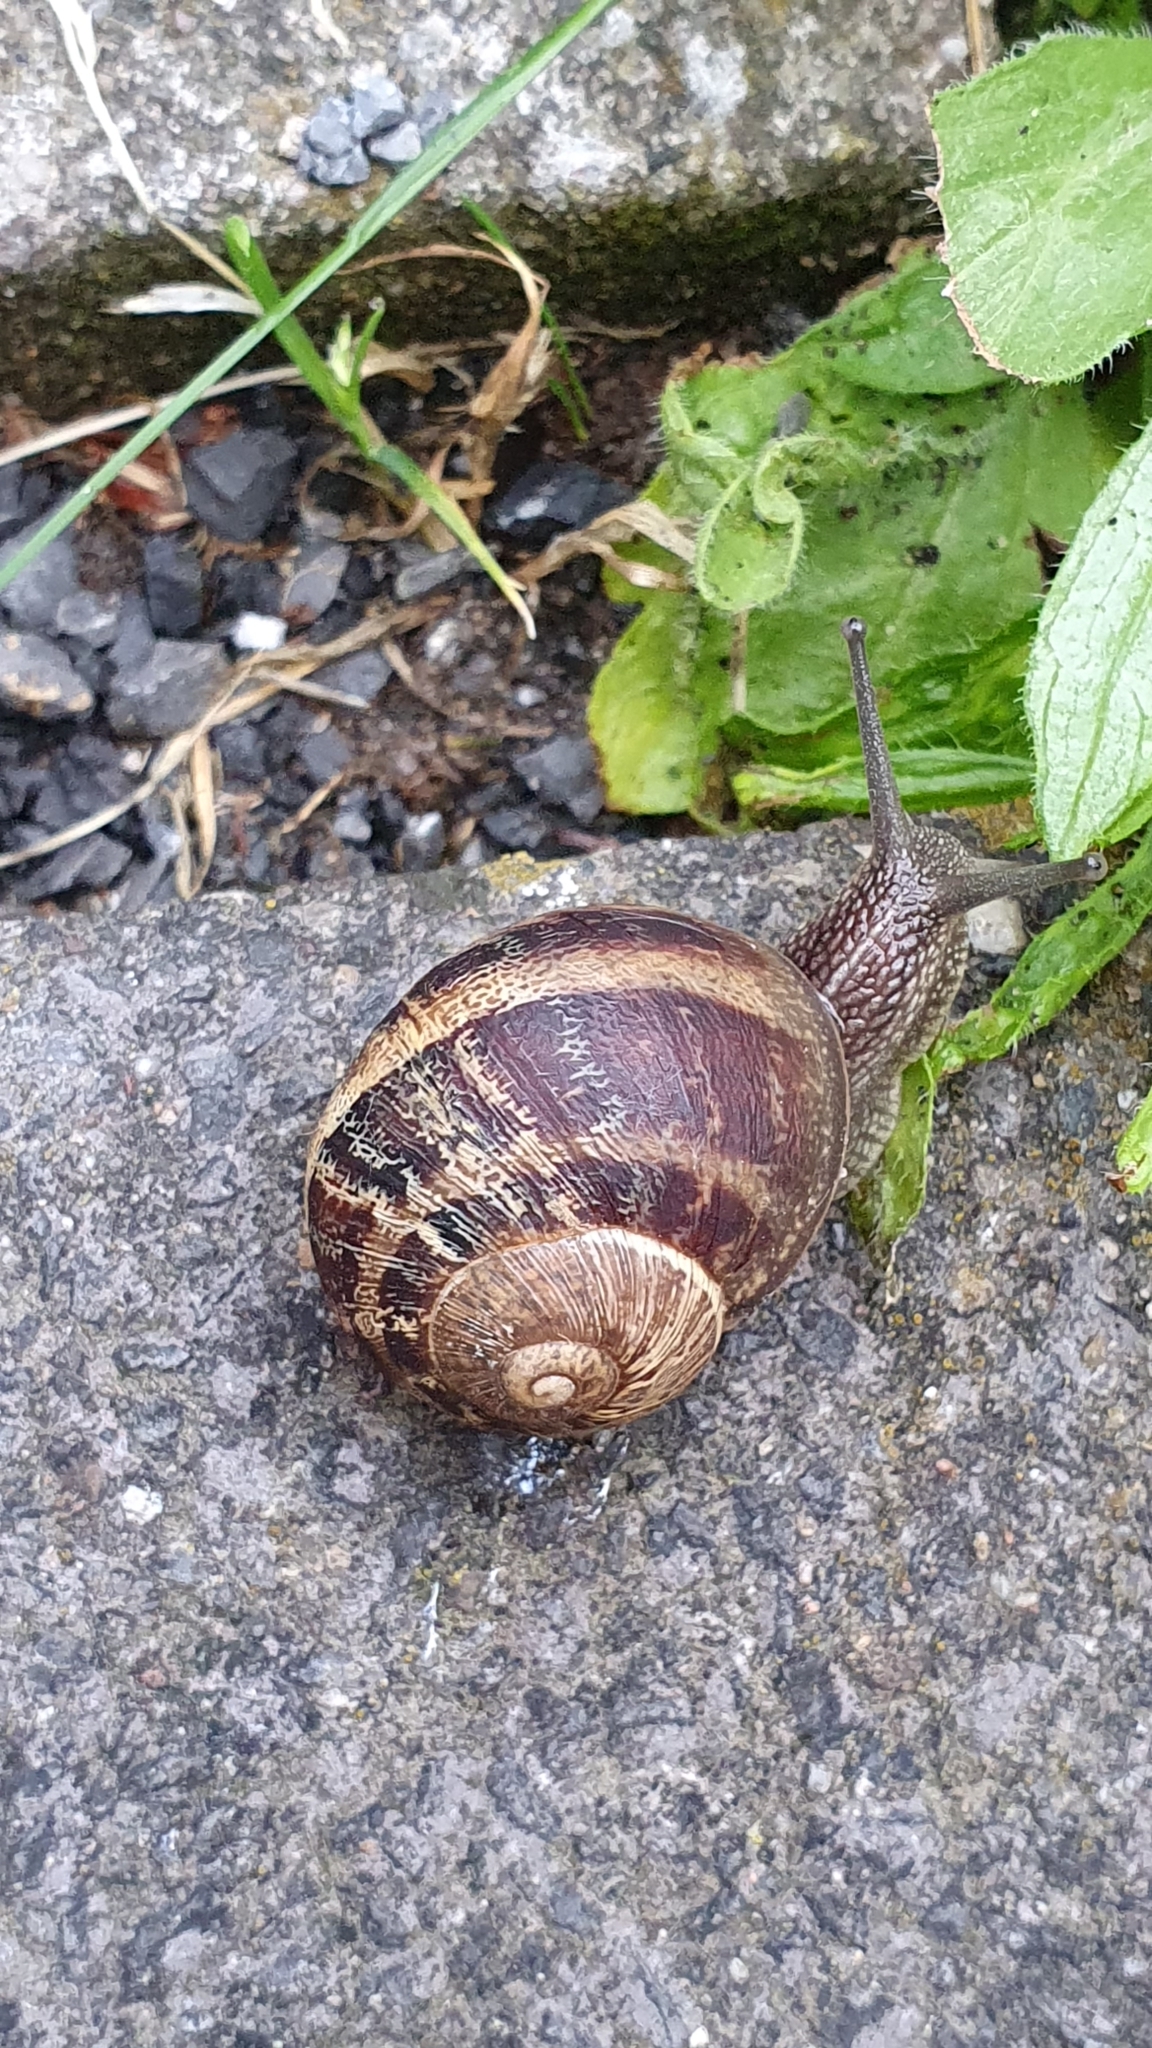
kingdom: Animalia
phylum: Mollusca
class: Gastropoda
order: Stylommatophora
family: Helicidae
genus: Cornu
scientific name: Cornu aspersum
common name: Brown garden snail
